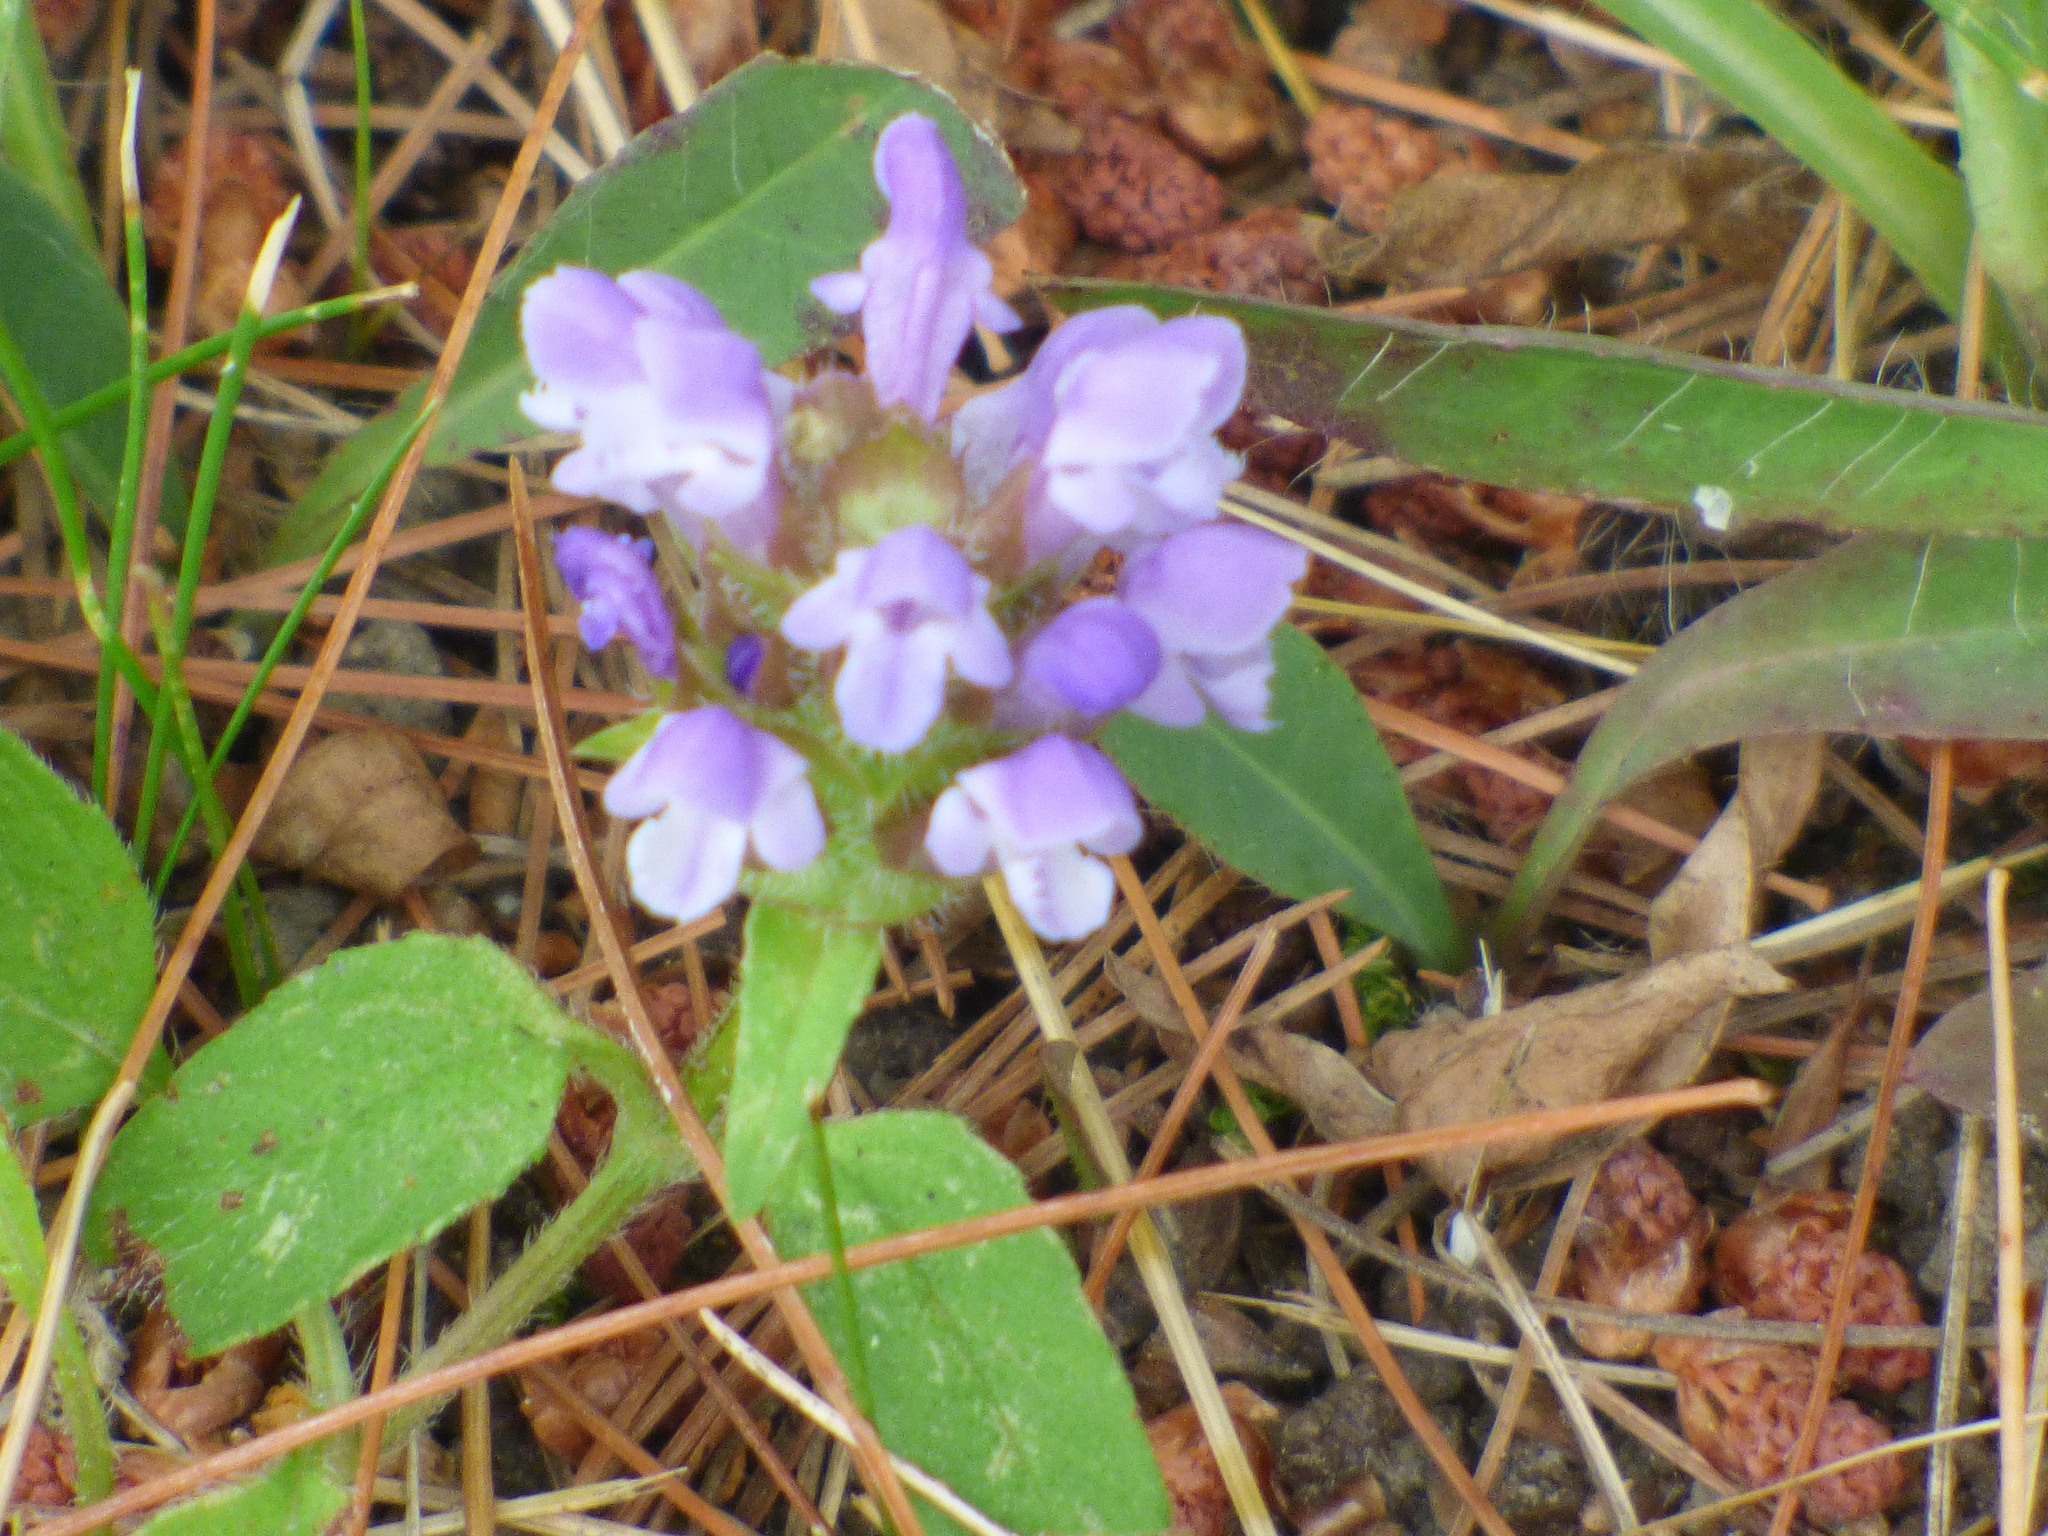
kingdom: Plantae
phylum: Tracheophyta
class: Magnoliopsida
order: Lamiales
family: Lamiaceae
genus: Prunella
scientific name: Prunella vulgaris
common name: Heal-all
